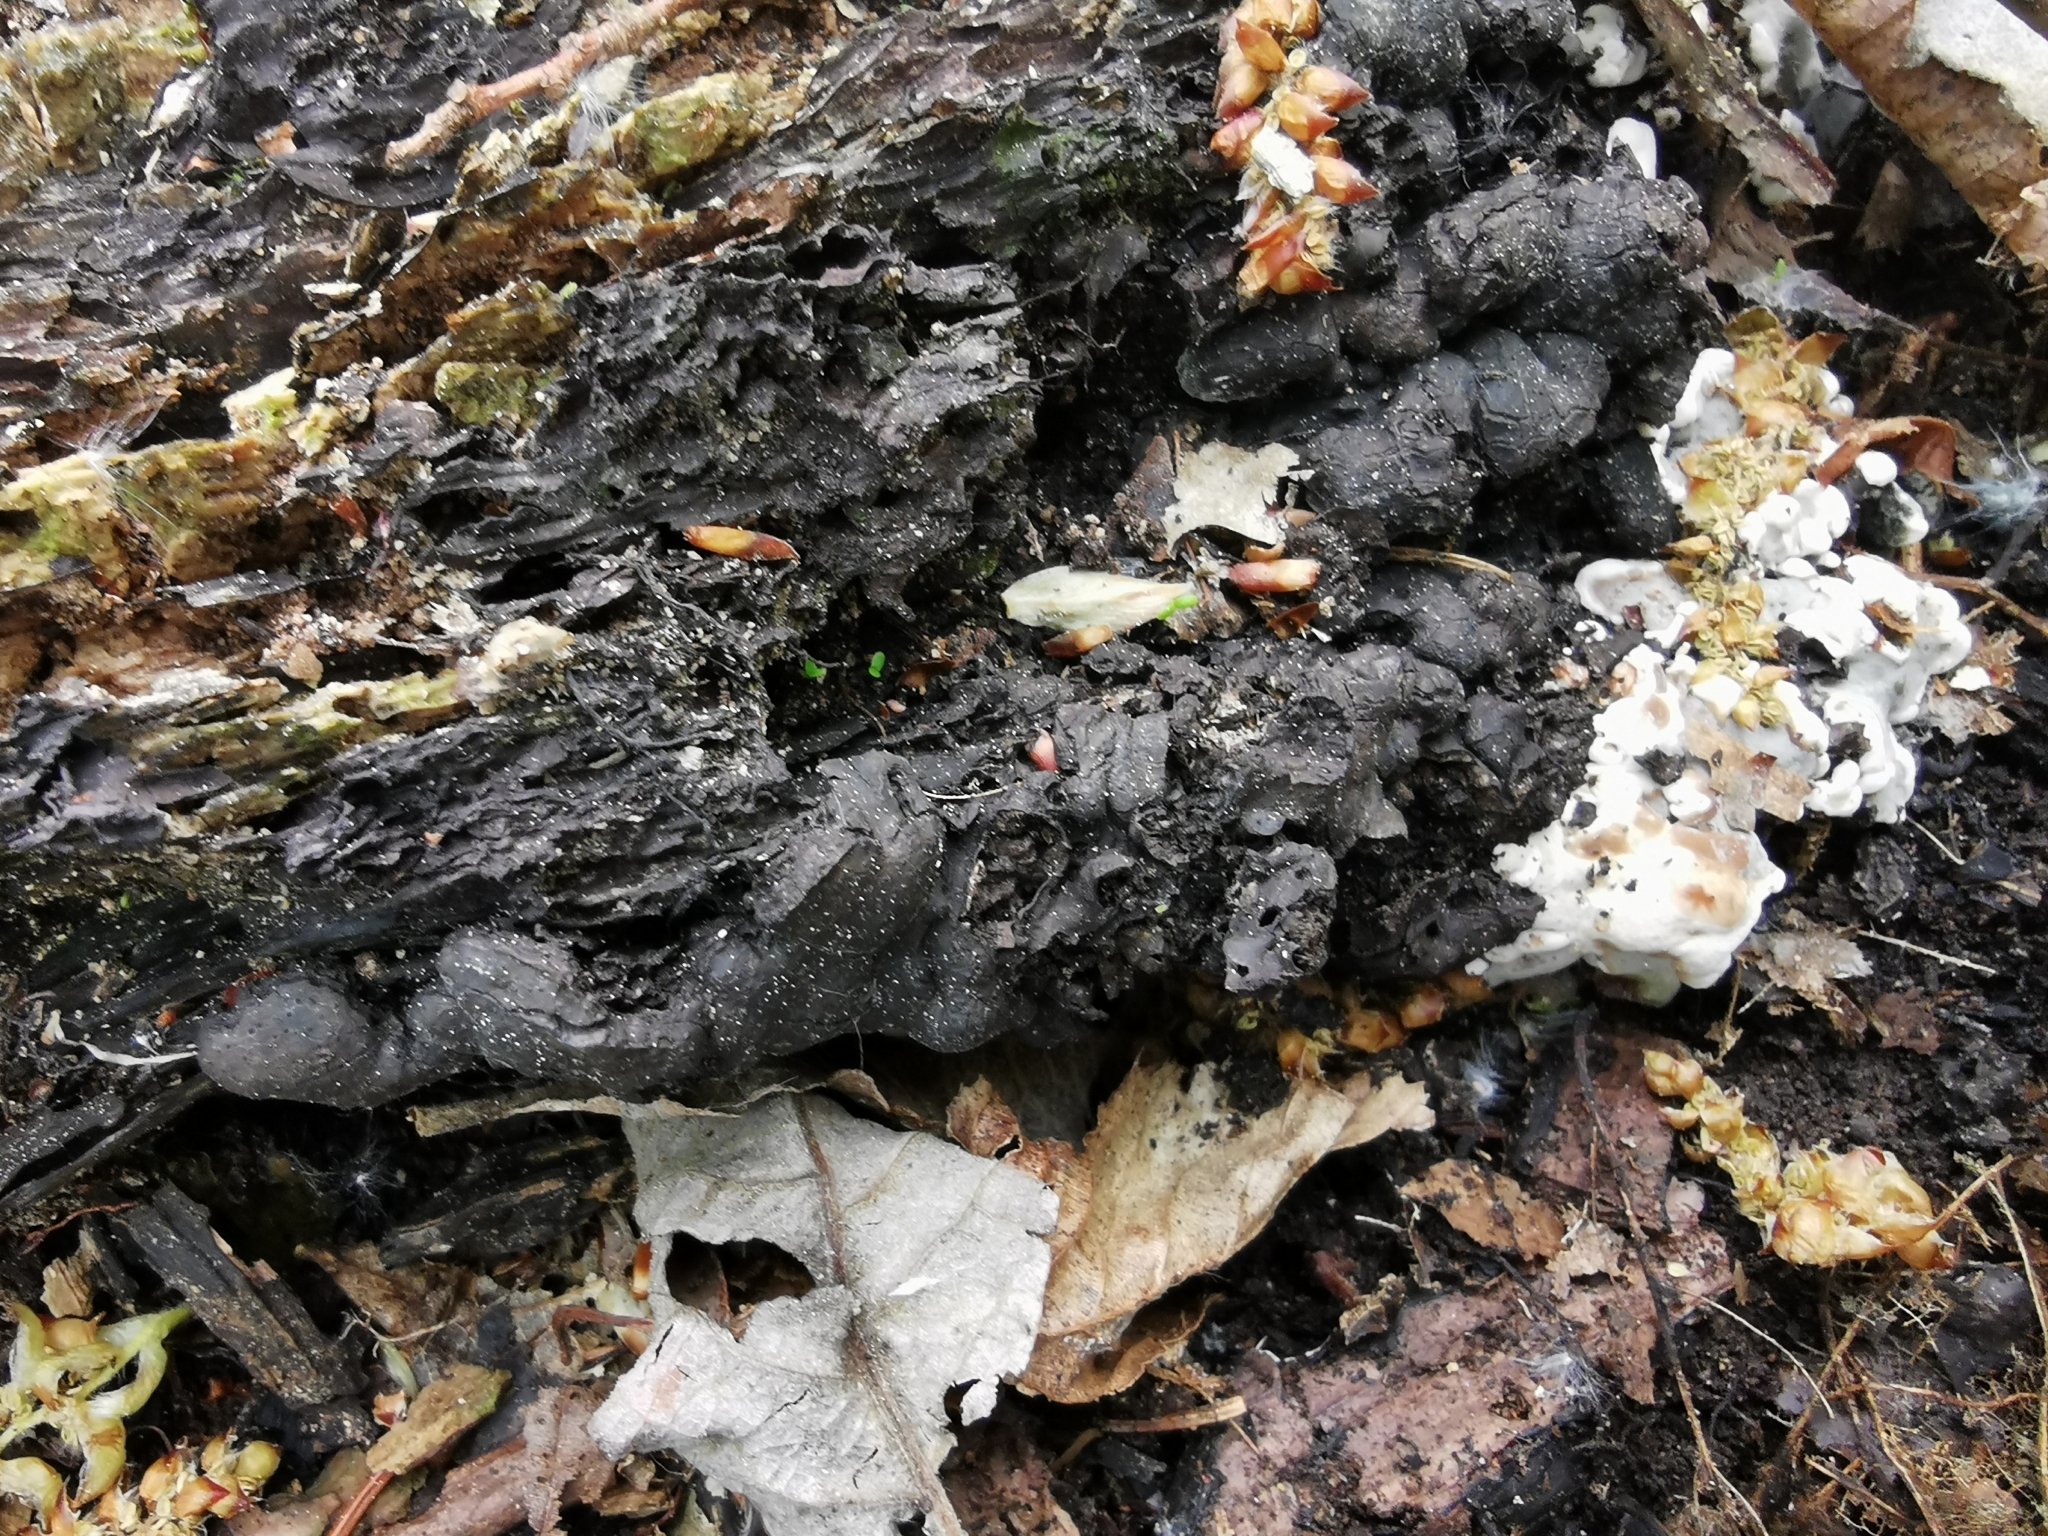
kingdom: Fungi
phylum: Ascomycota
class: Sordariomycetes
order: Xylariales
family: Xylariaceae
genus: Kretzschmaria
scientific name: Kretzschmaria deusta
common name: Brittle cinder
